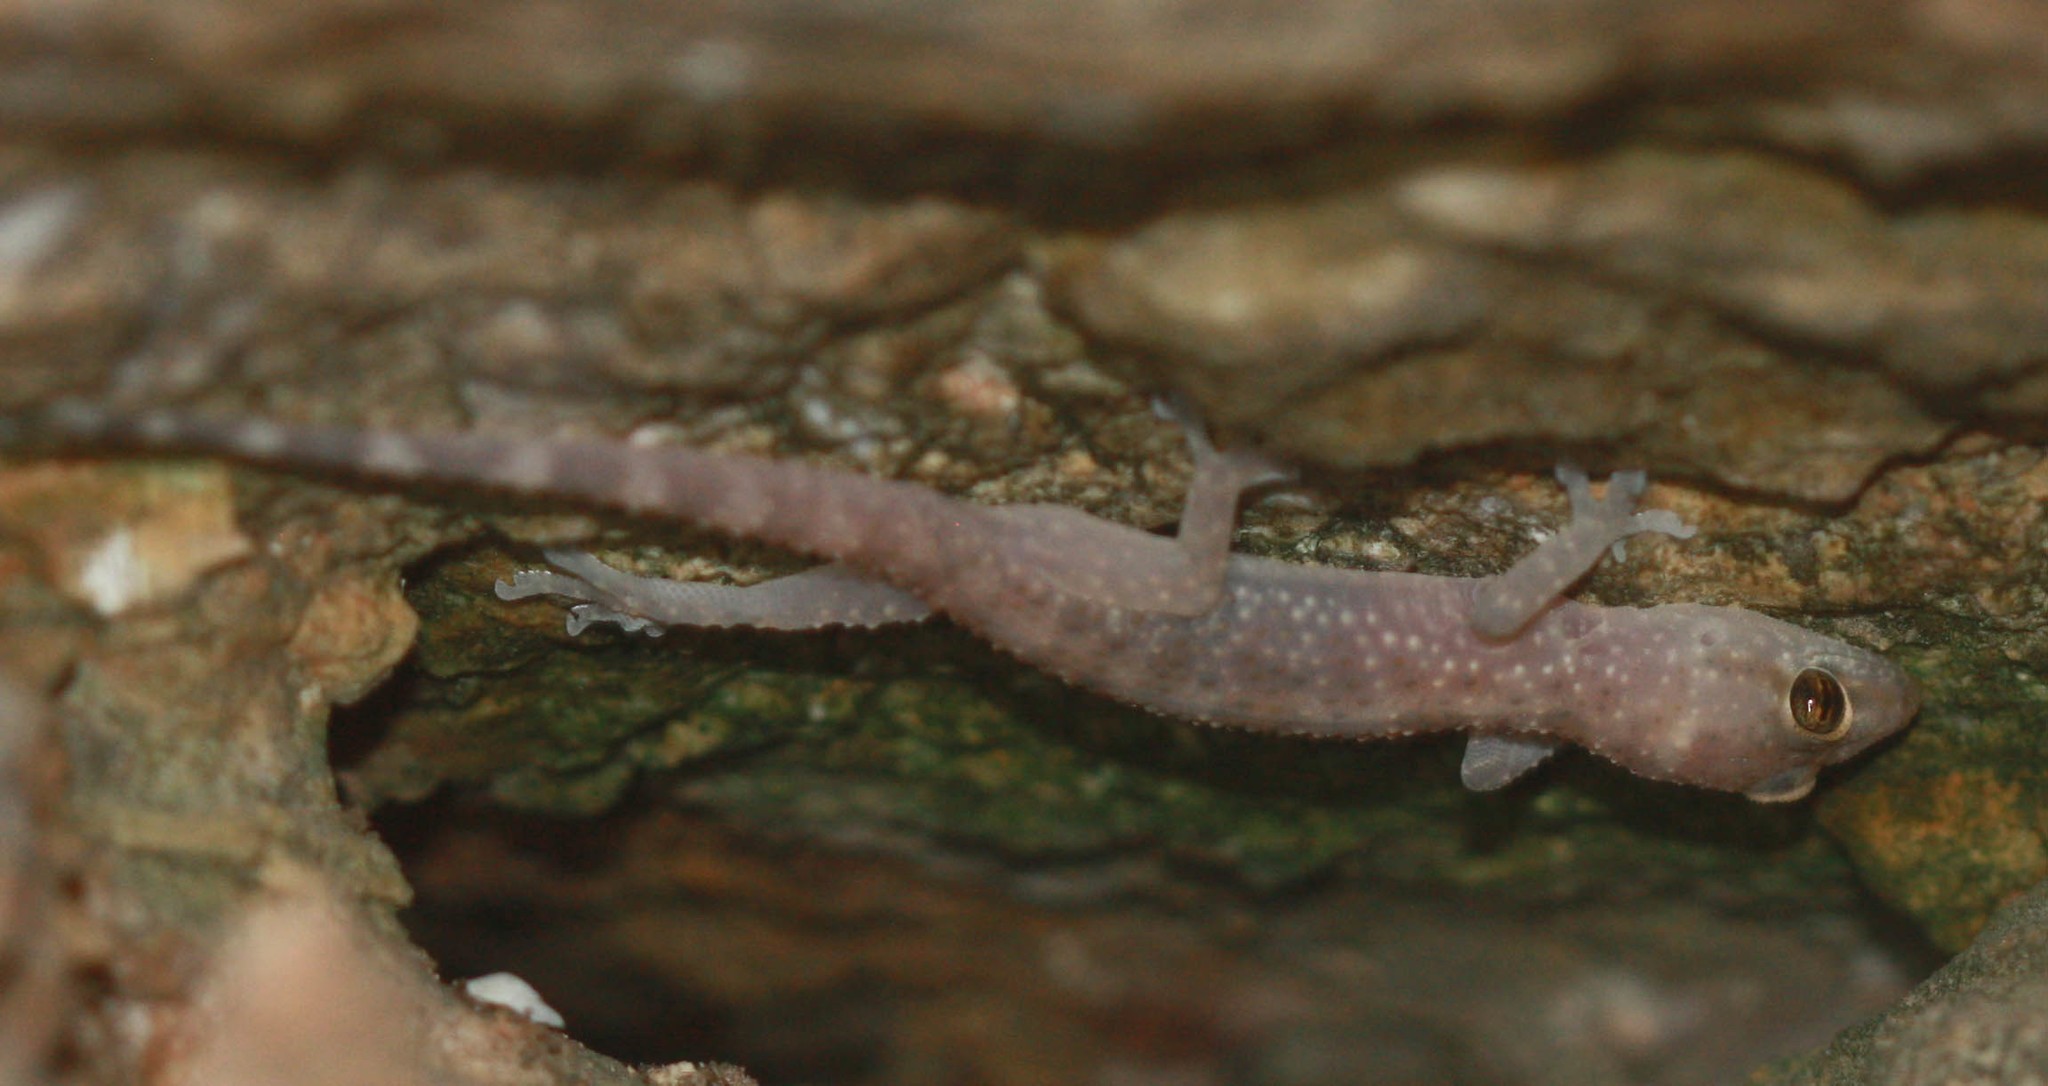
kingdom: Animalia
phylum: Chordata
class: Squamata
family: Gekkonidae
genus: Hemidactylus
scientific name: Hemidactylus turcicus
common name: Turkish gecko
